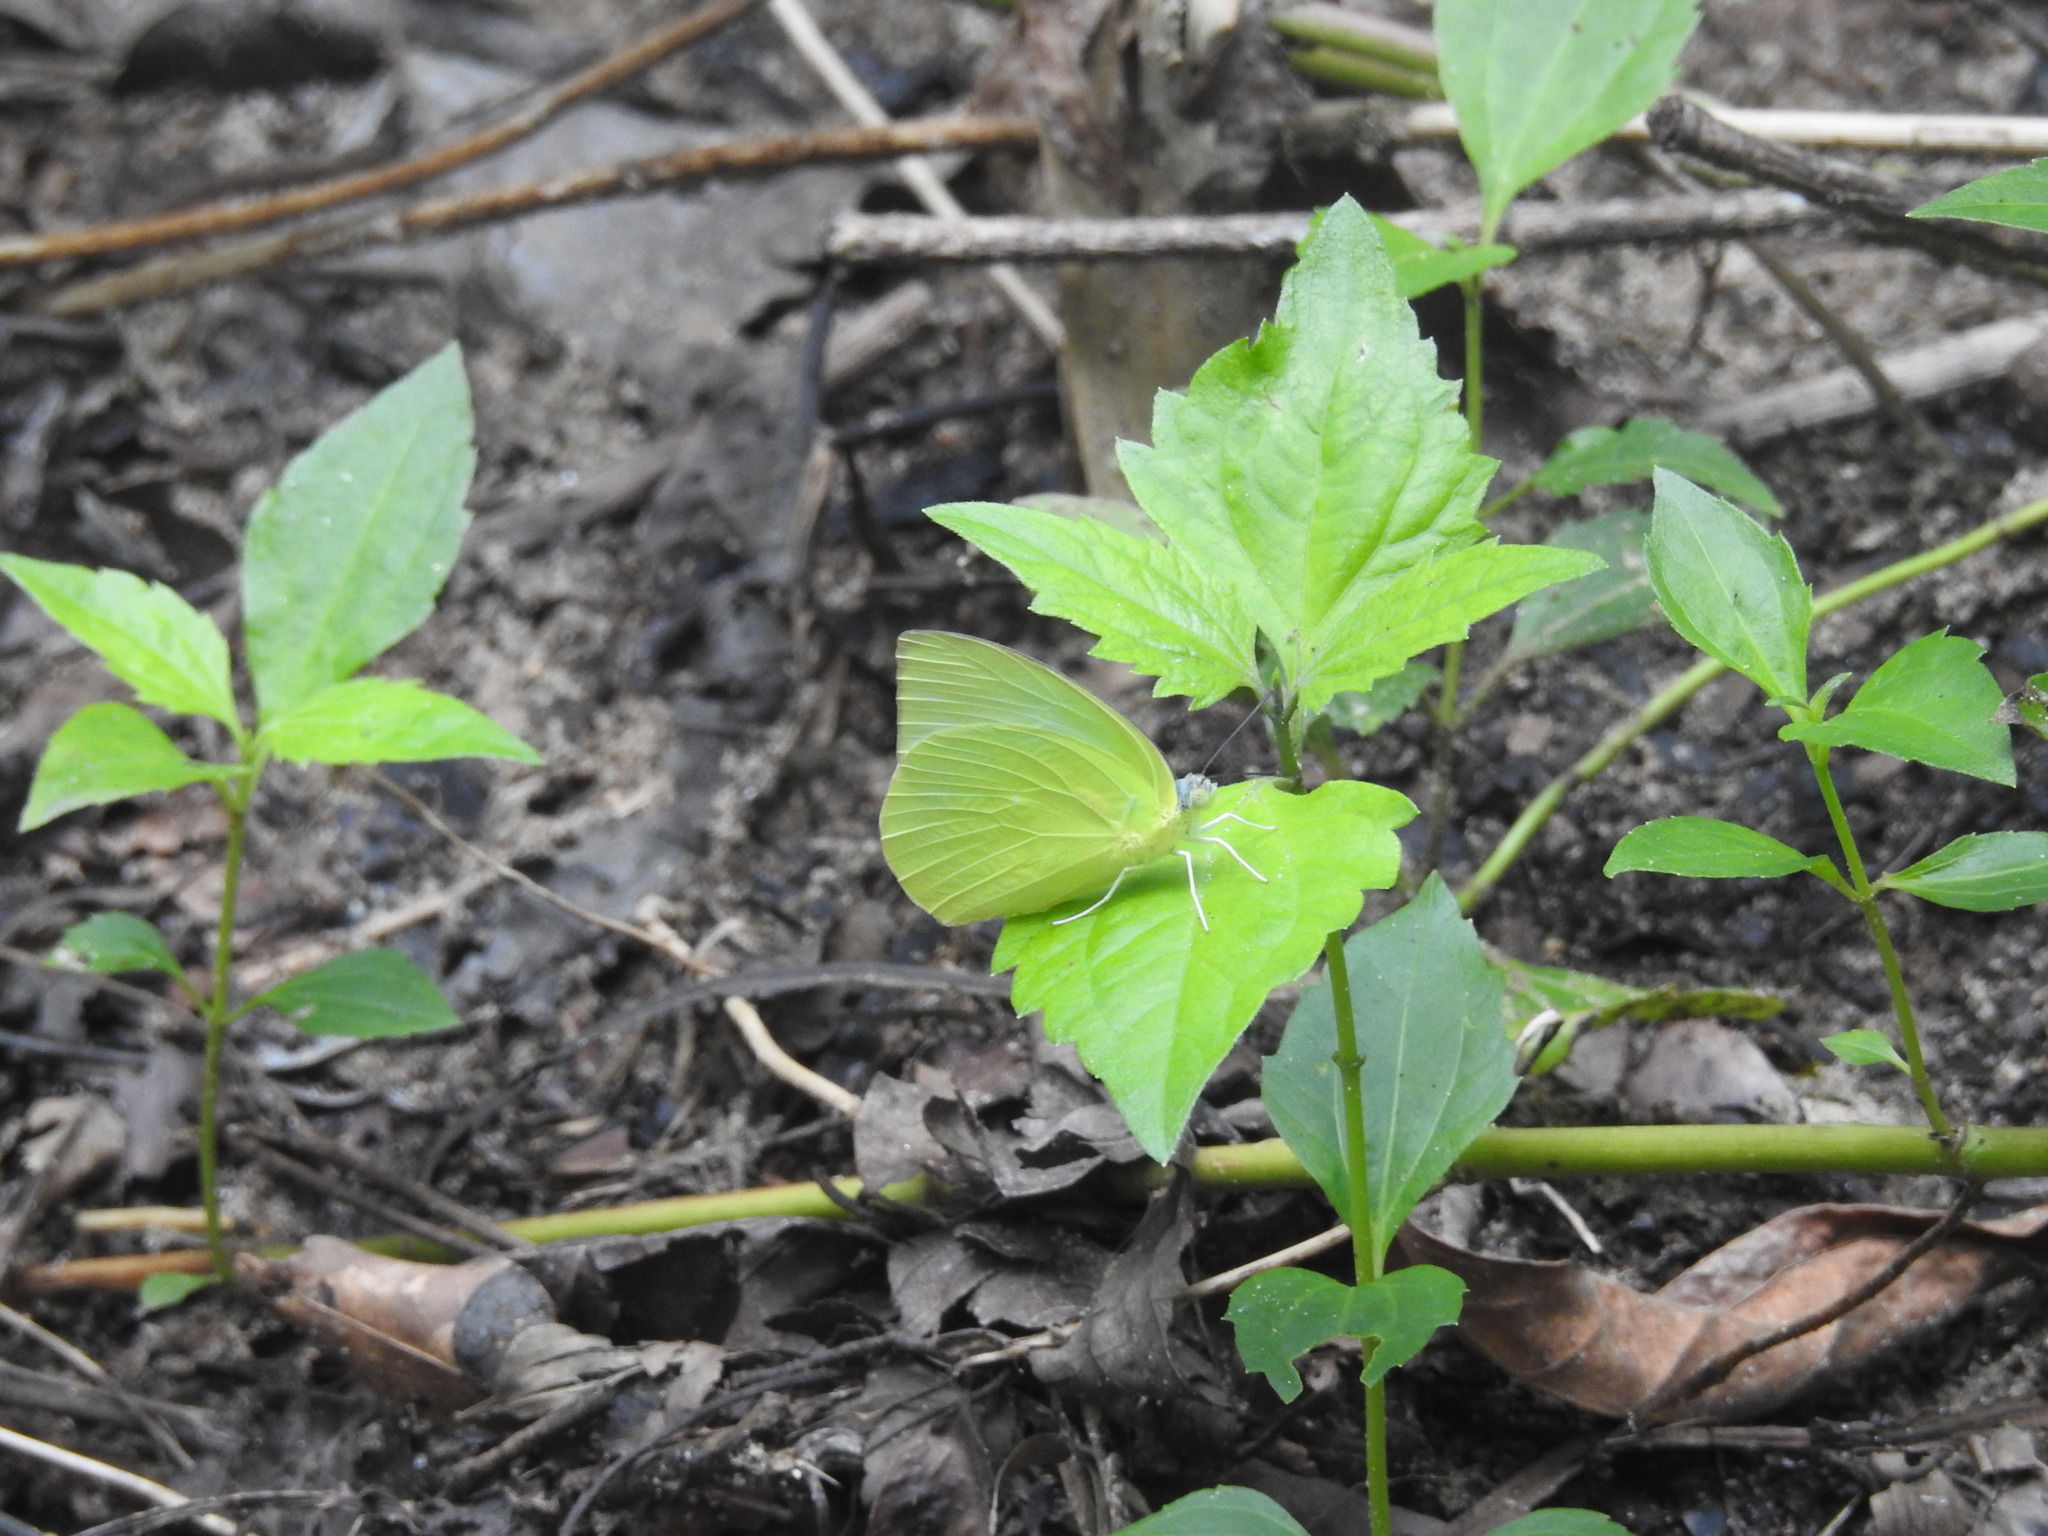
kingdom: Animalia
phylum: Arthropoda
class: Insecta
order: Lepidoptera
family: Pieridae
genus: Catopsilia
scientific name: Catopsilia pomona
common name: Common emigrant
